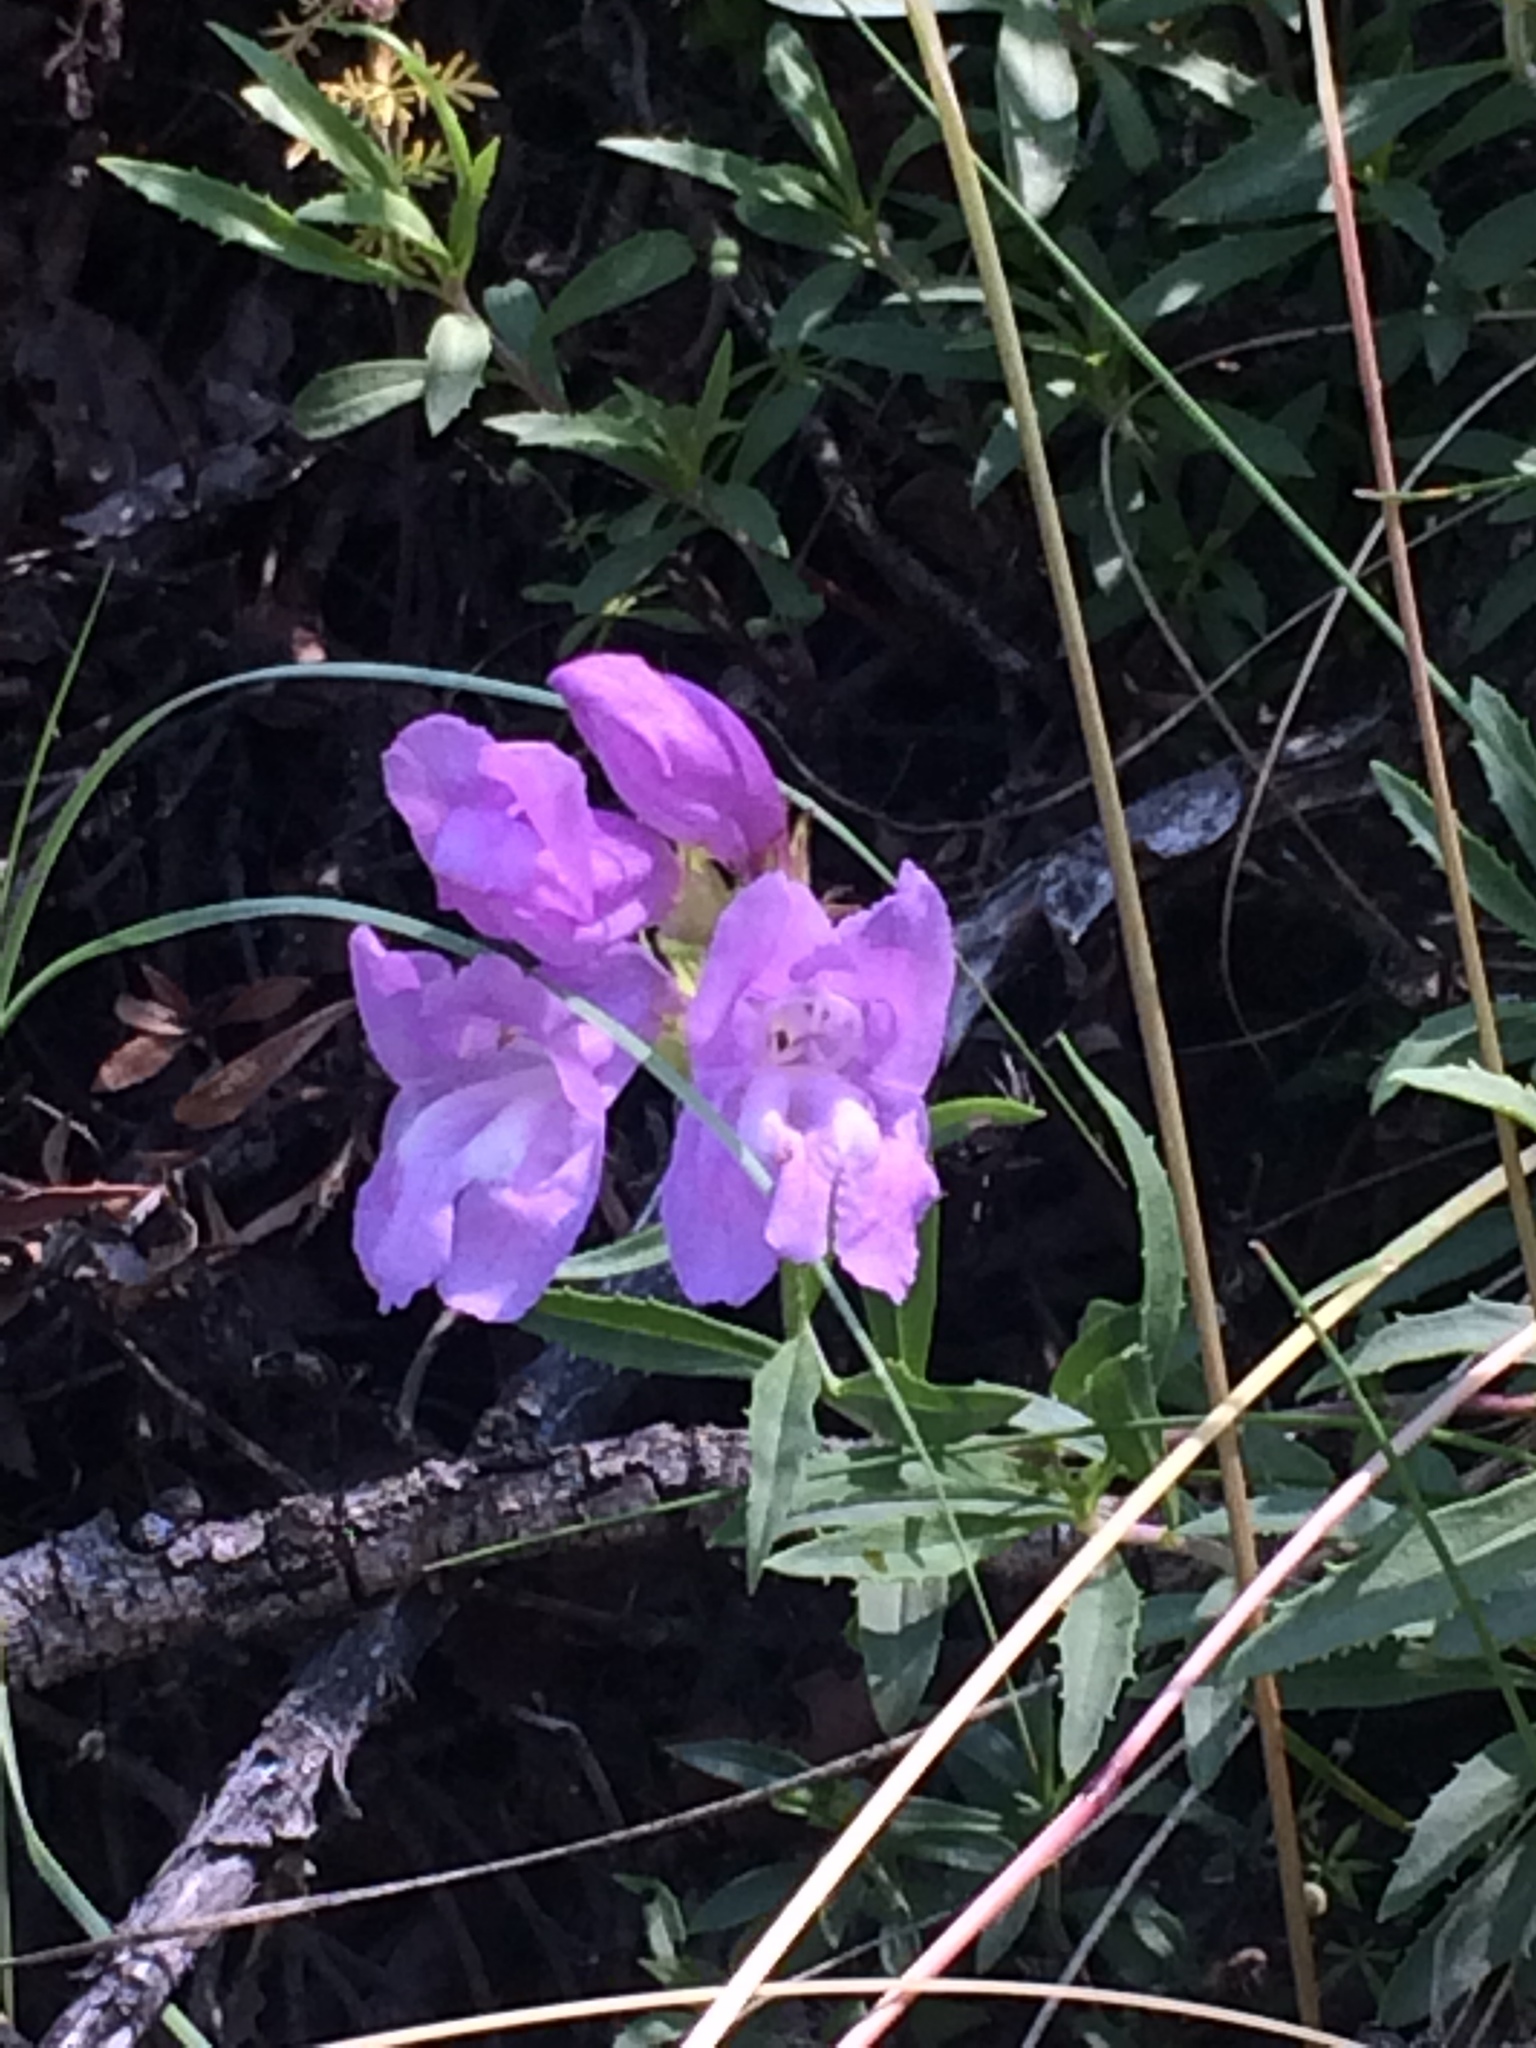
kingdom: Plantae
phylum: Tracheophyta
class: Magnoliopsida
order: Lamiales
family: Plantaginaceae
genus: Penstemon
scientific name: Penstemon fruticosus
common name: Bush penstemon
